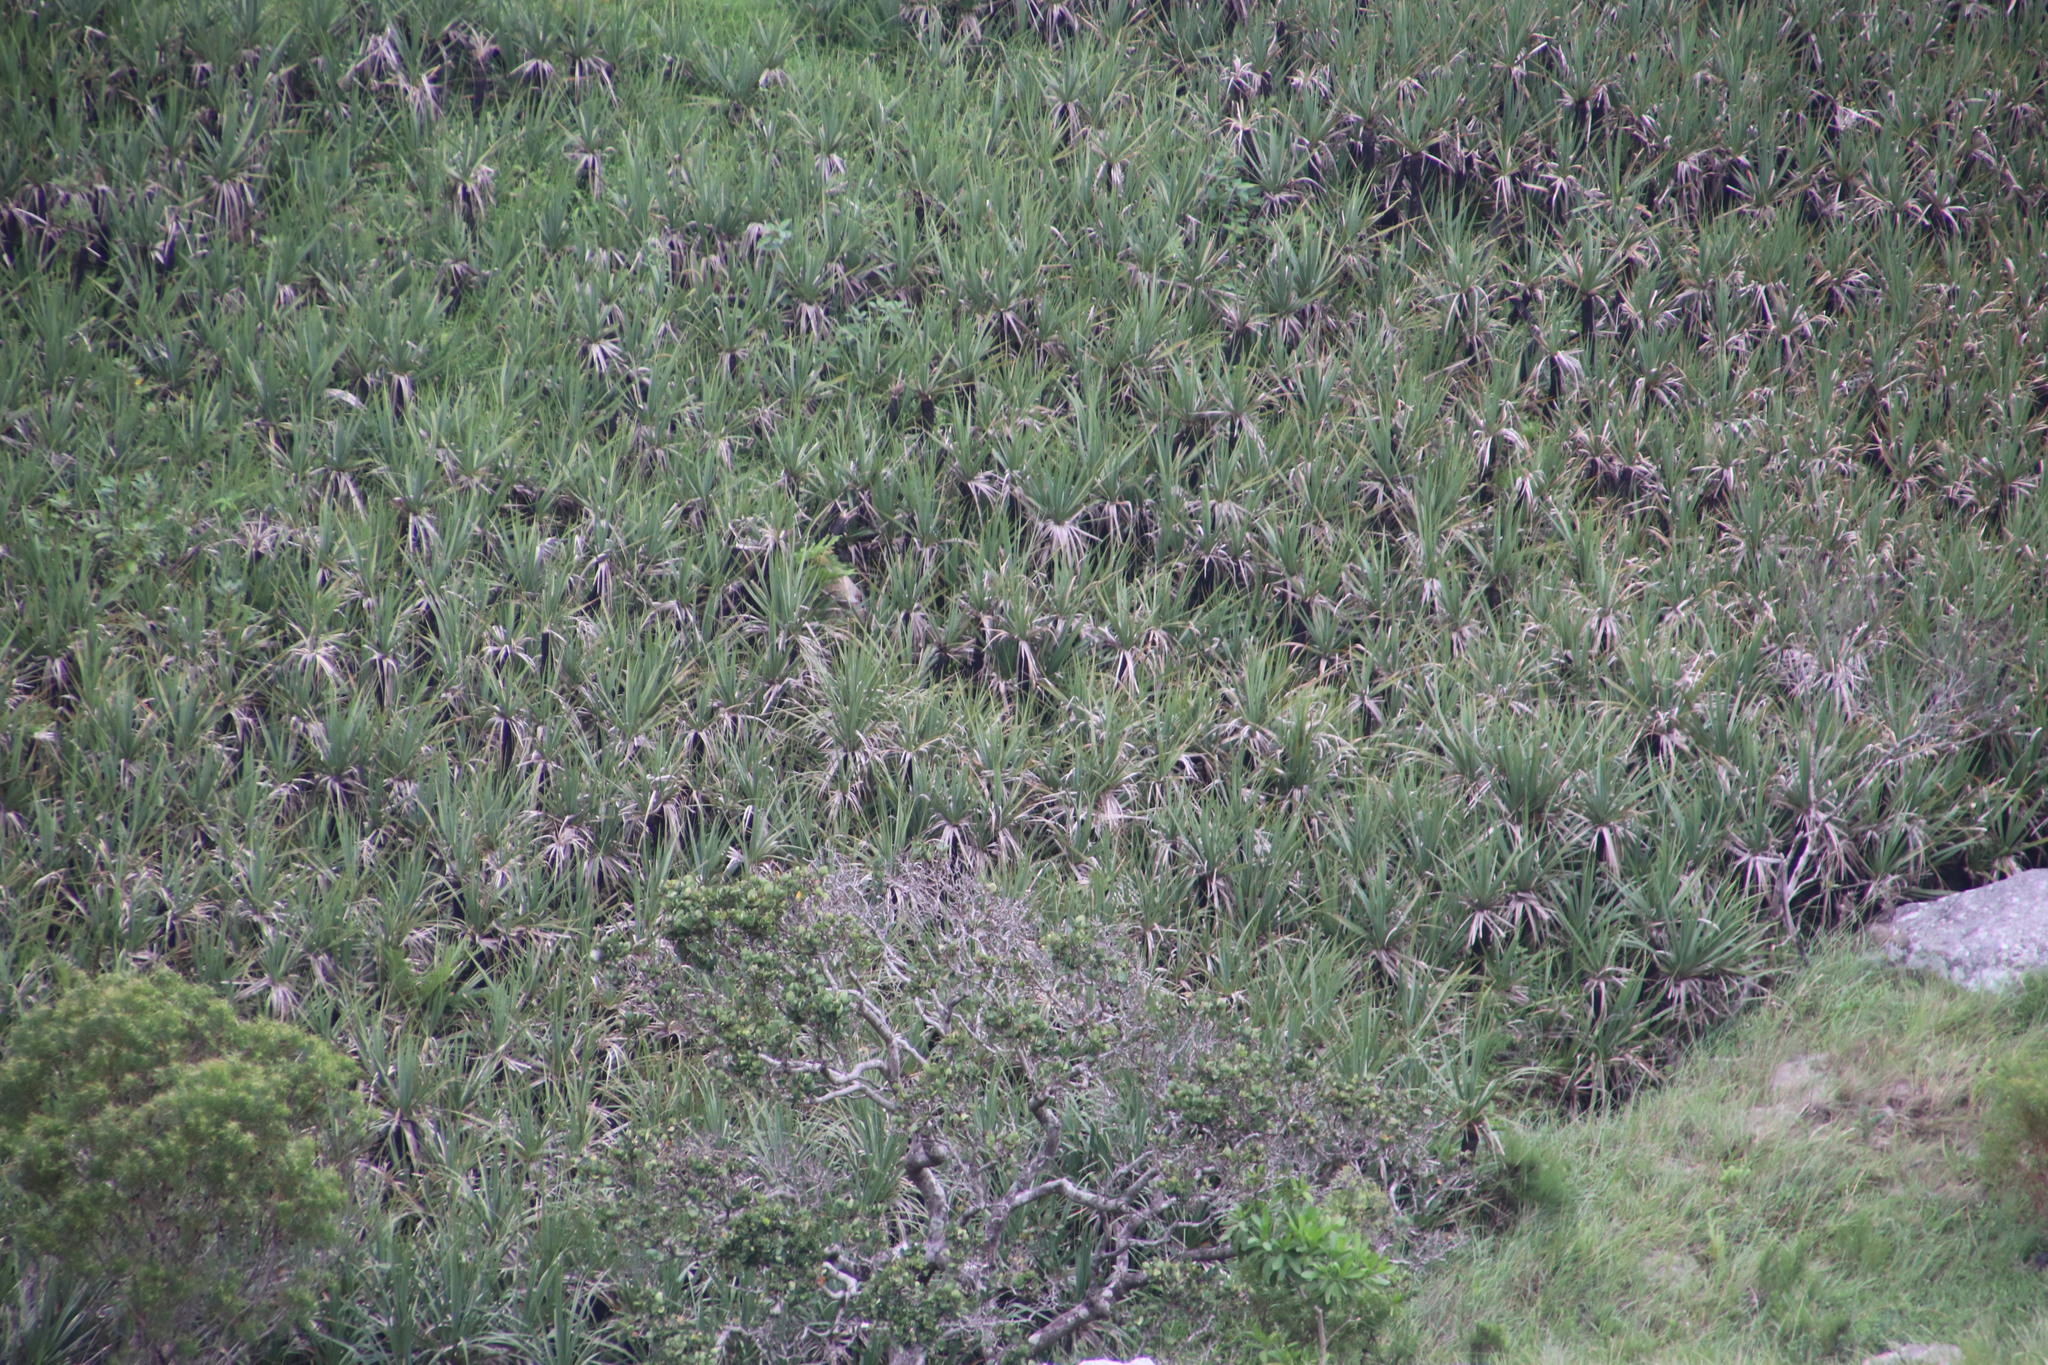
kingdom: Plantae
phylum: Tracheophyta
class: Liliopsida
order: Poales
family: Thurniaceae
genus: Prionium
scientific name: Prionium serratum
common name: Palmiet
